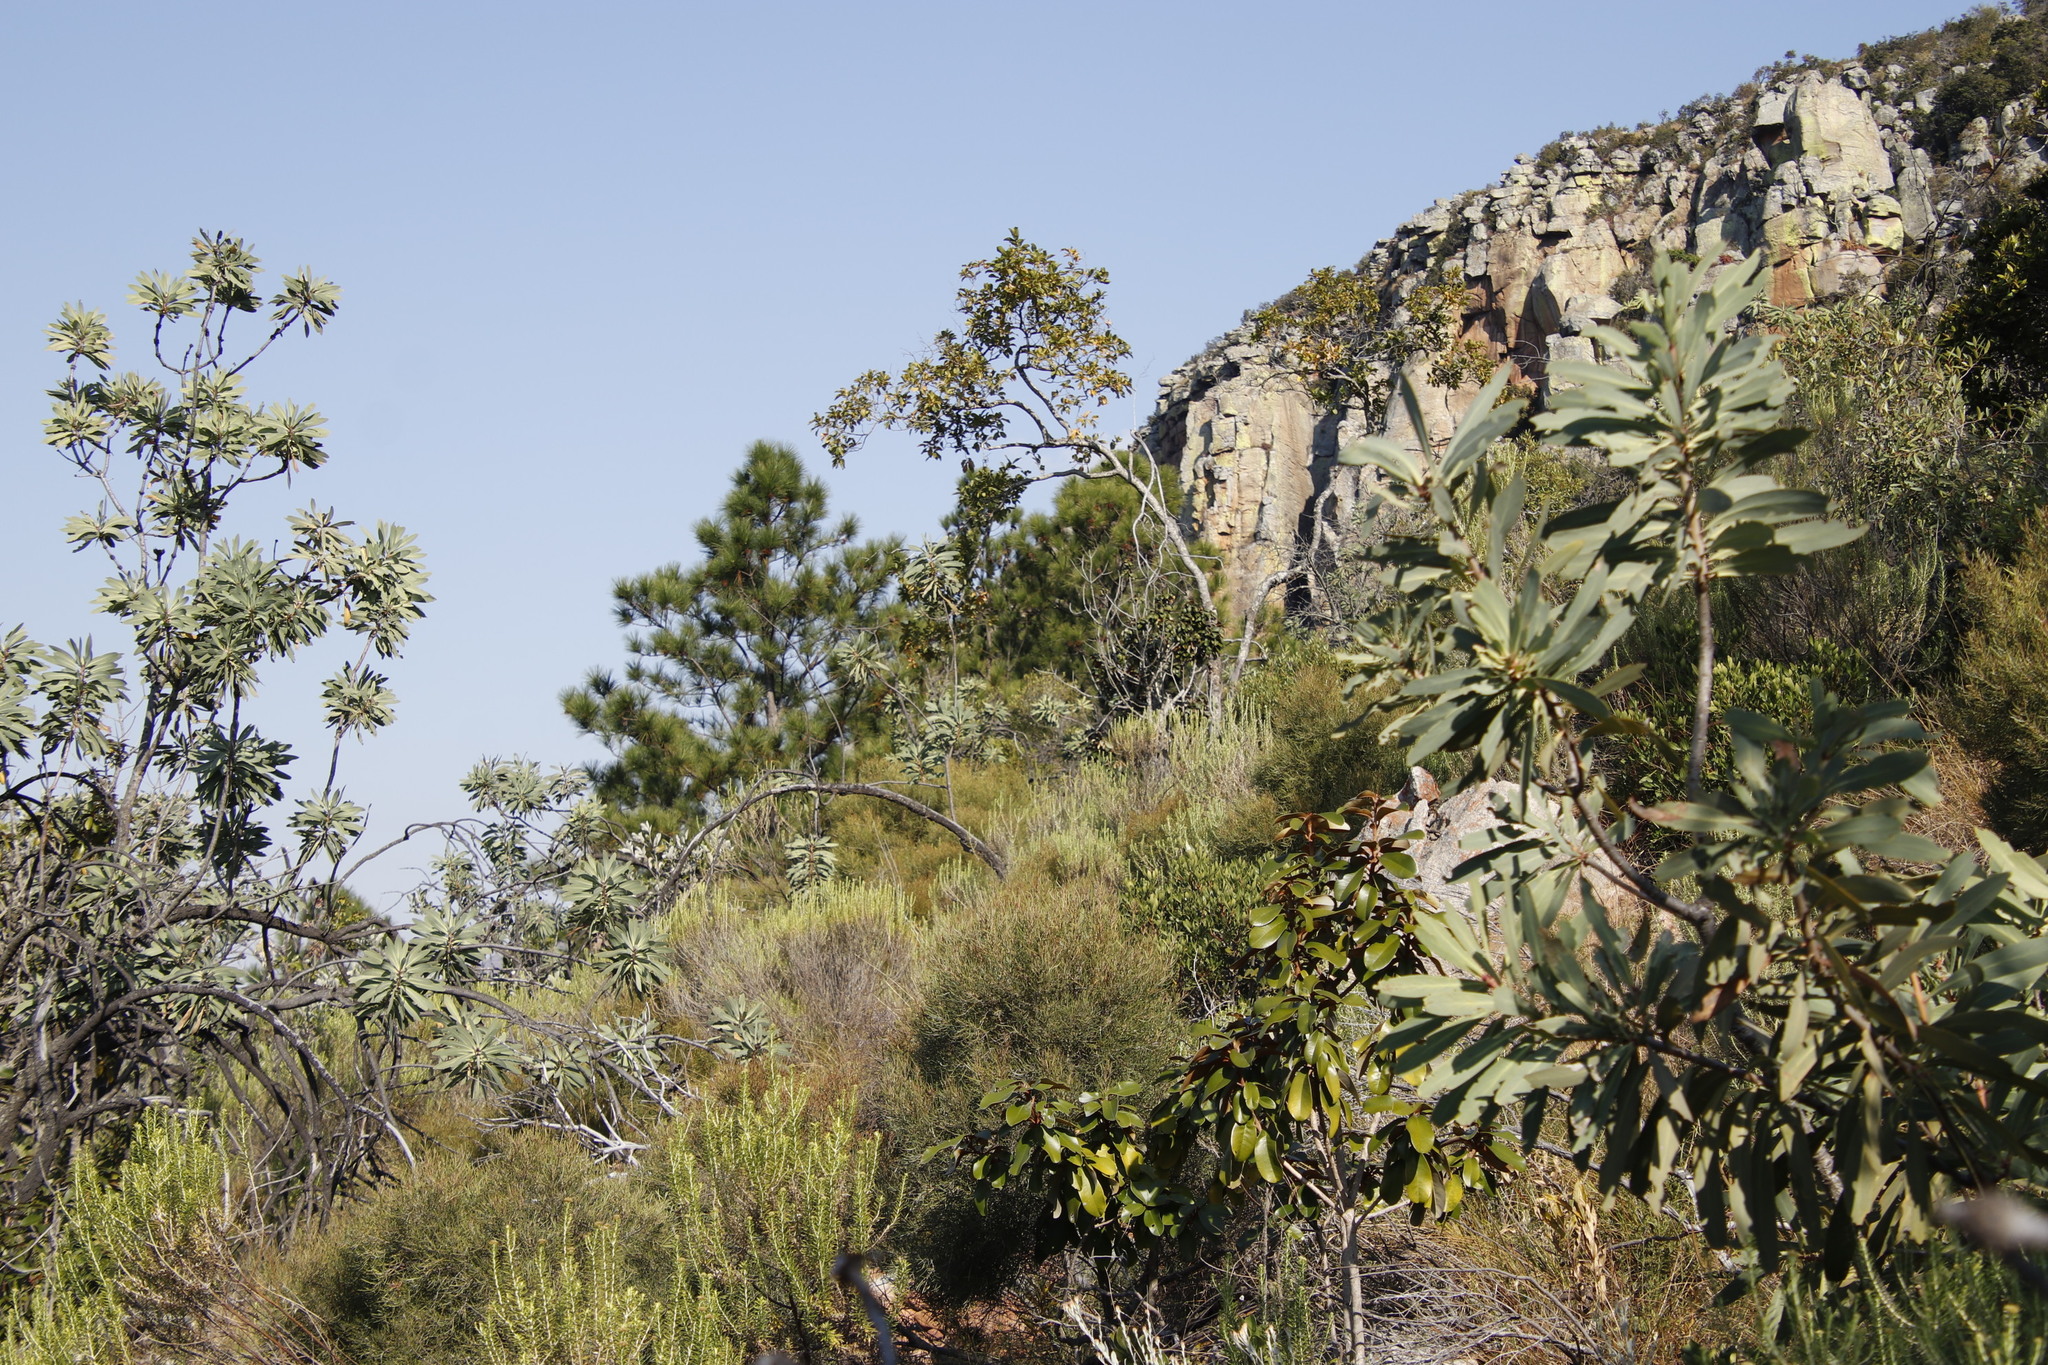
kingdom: Plantae
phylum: Tracheophyta
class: Magnoliopsida
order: Proteales
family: Proteaceae
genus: Protea
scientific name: Protea laetans
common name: Blyde protea
